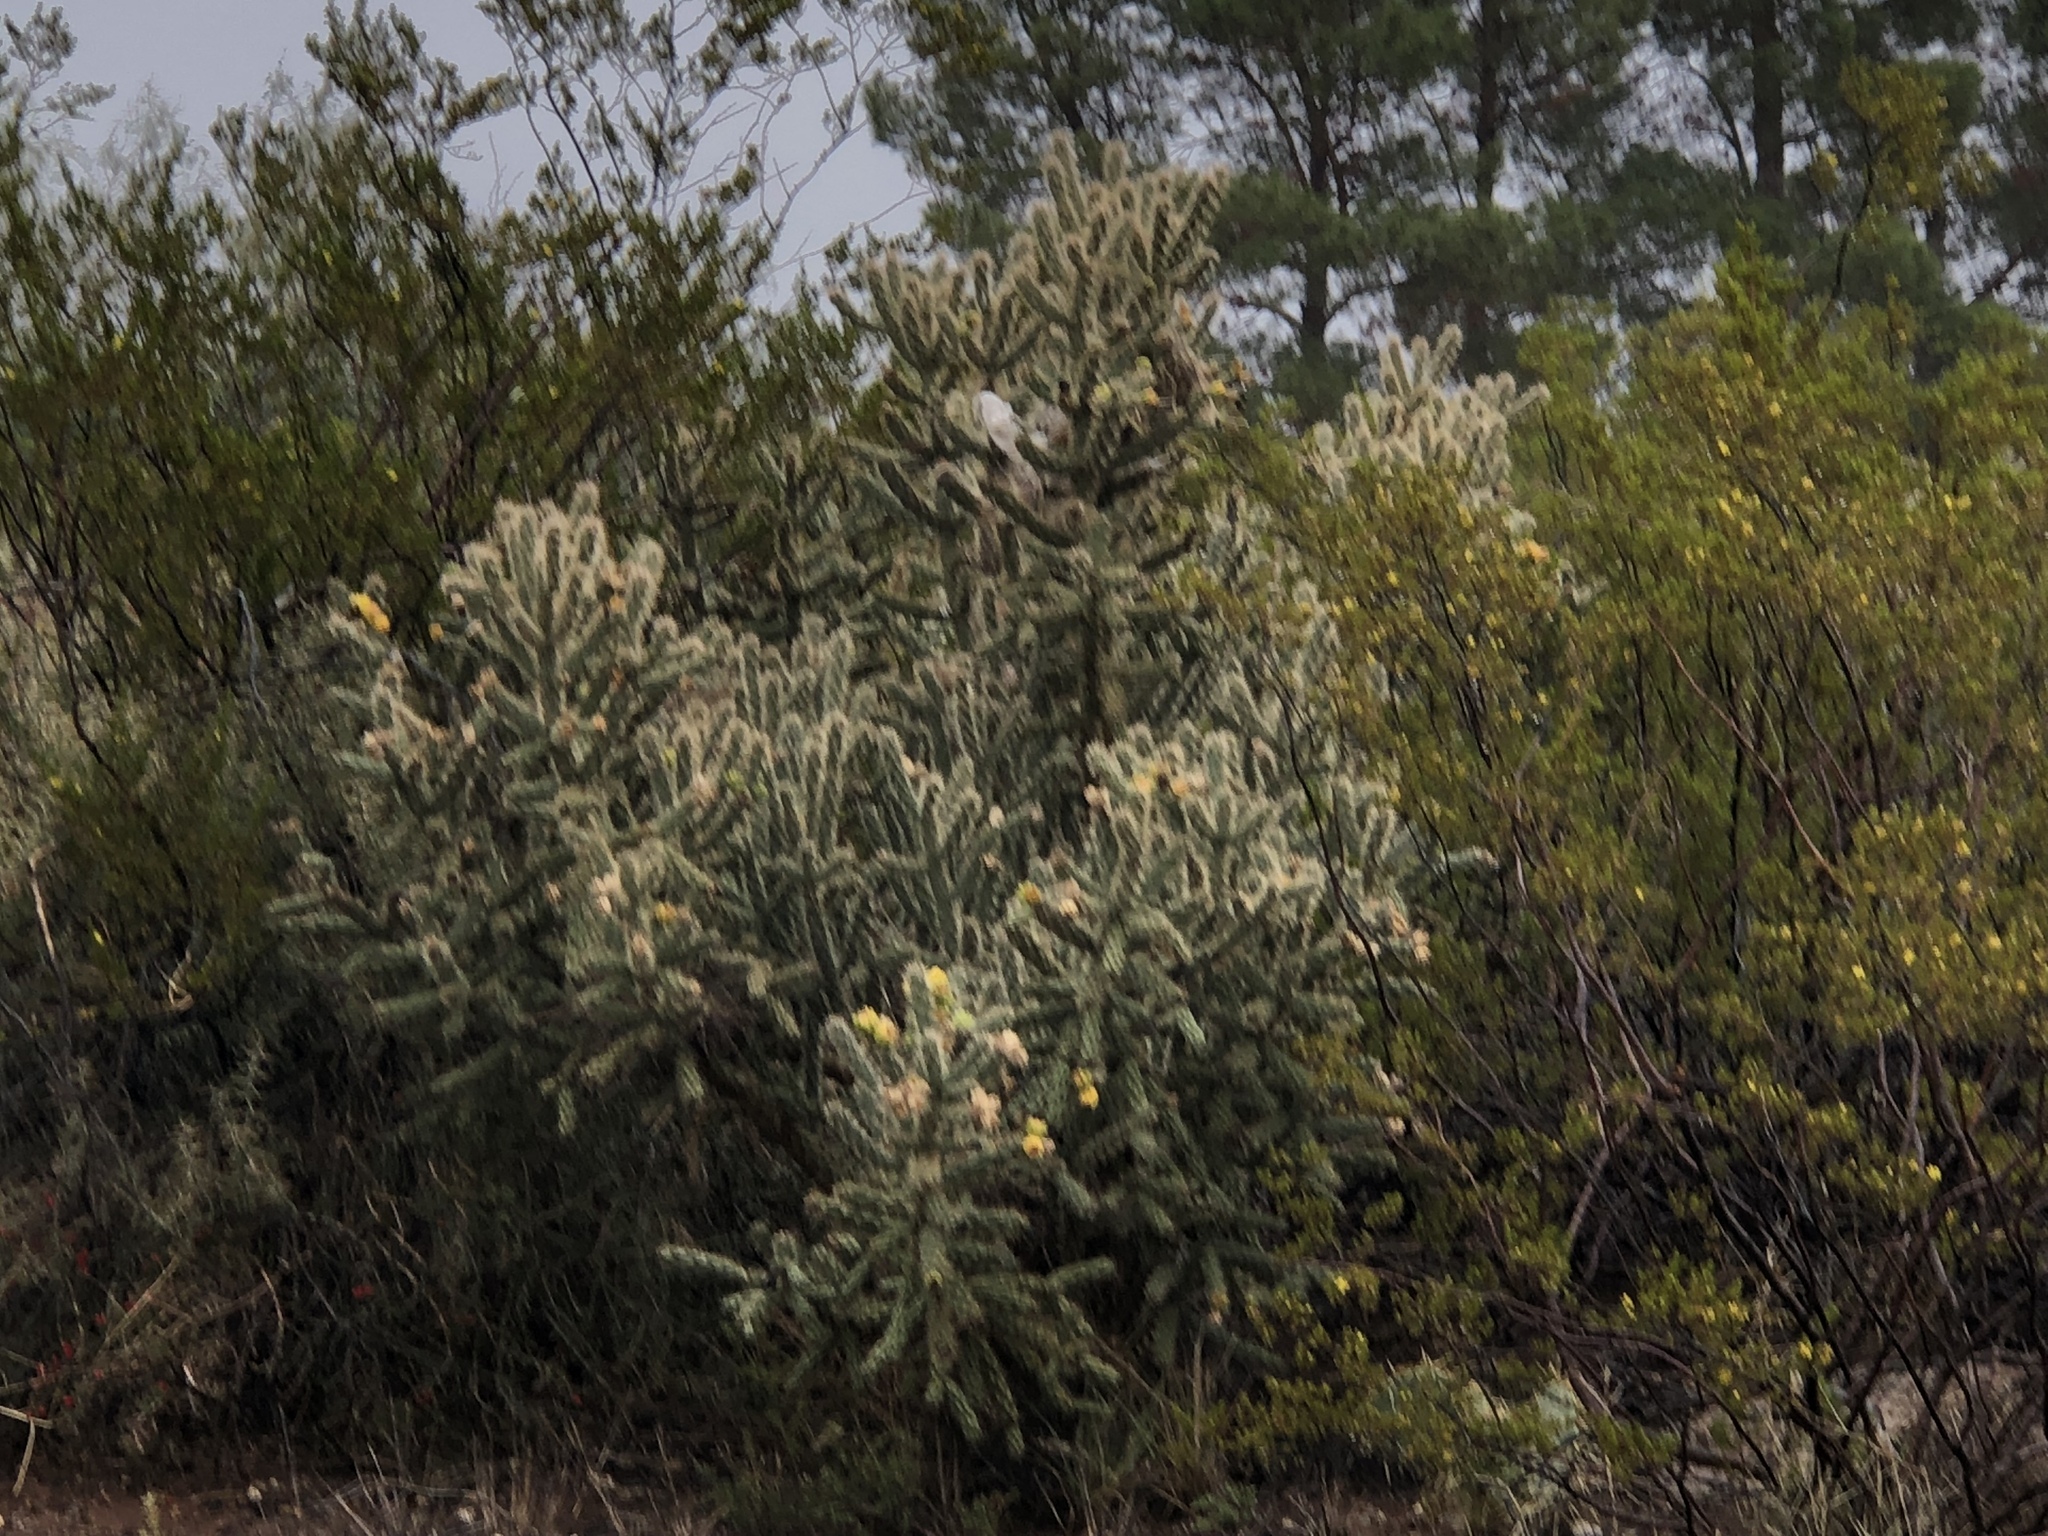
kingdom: Plantae
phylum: Tracheophyta
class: Magnoliopsida
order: Caryophyllales
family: Cactaceae
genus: Cylindropuntia
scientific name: Cylindropuntia imbricata
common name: Candelabrum cactus
